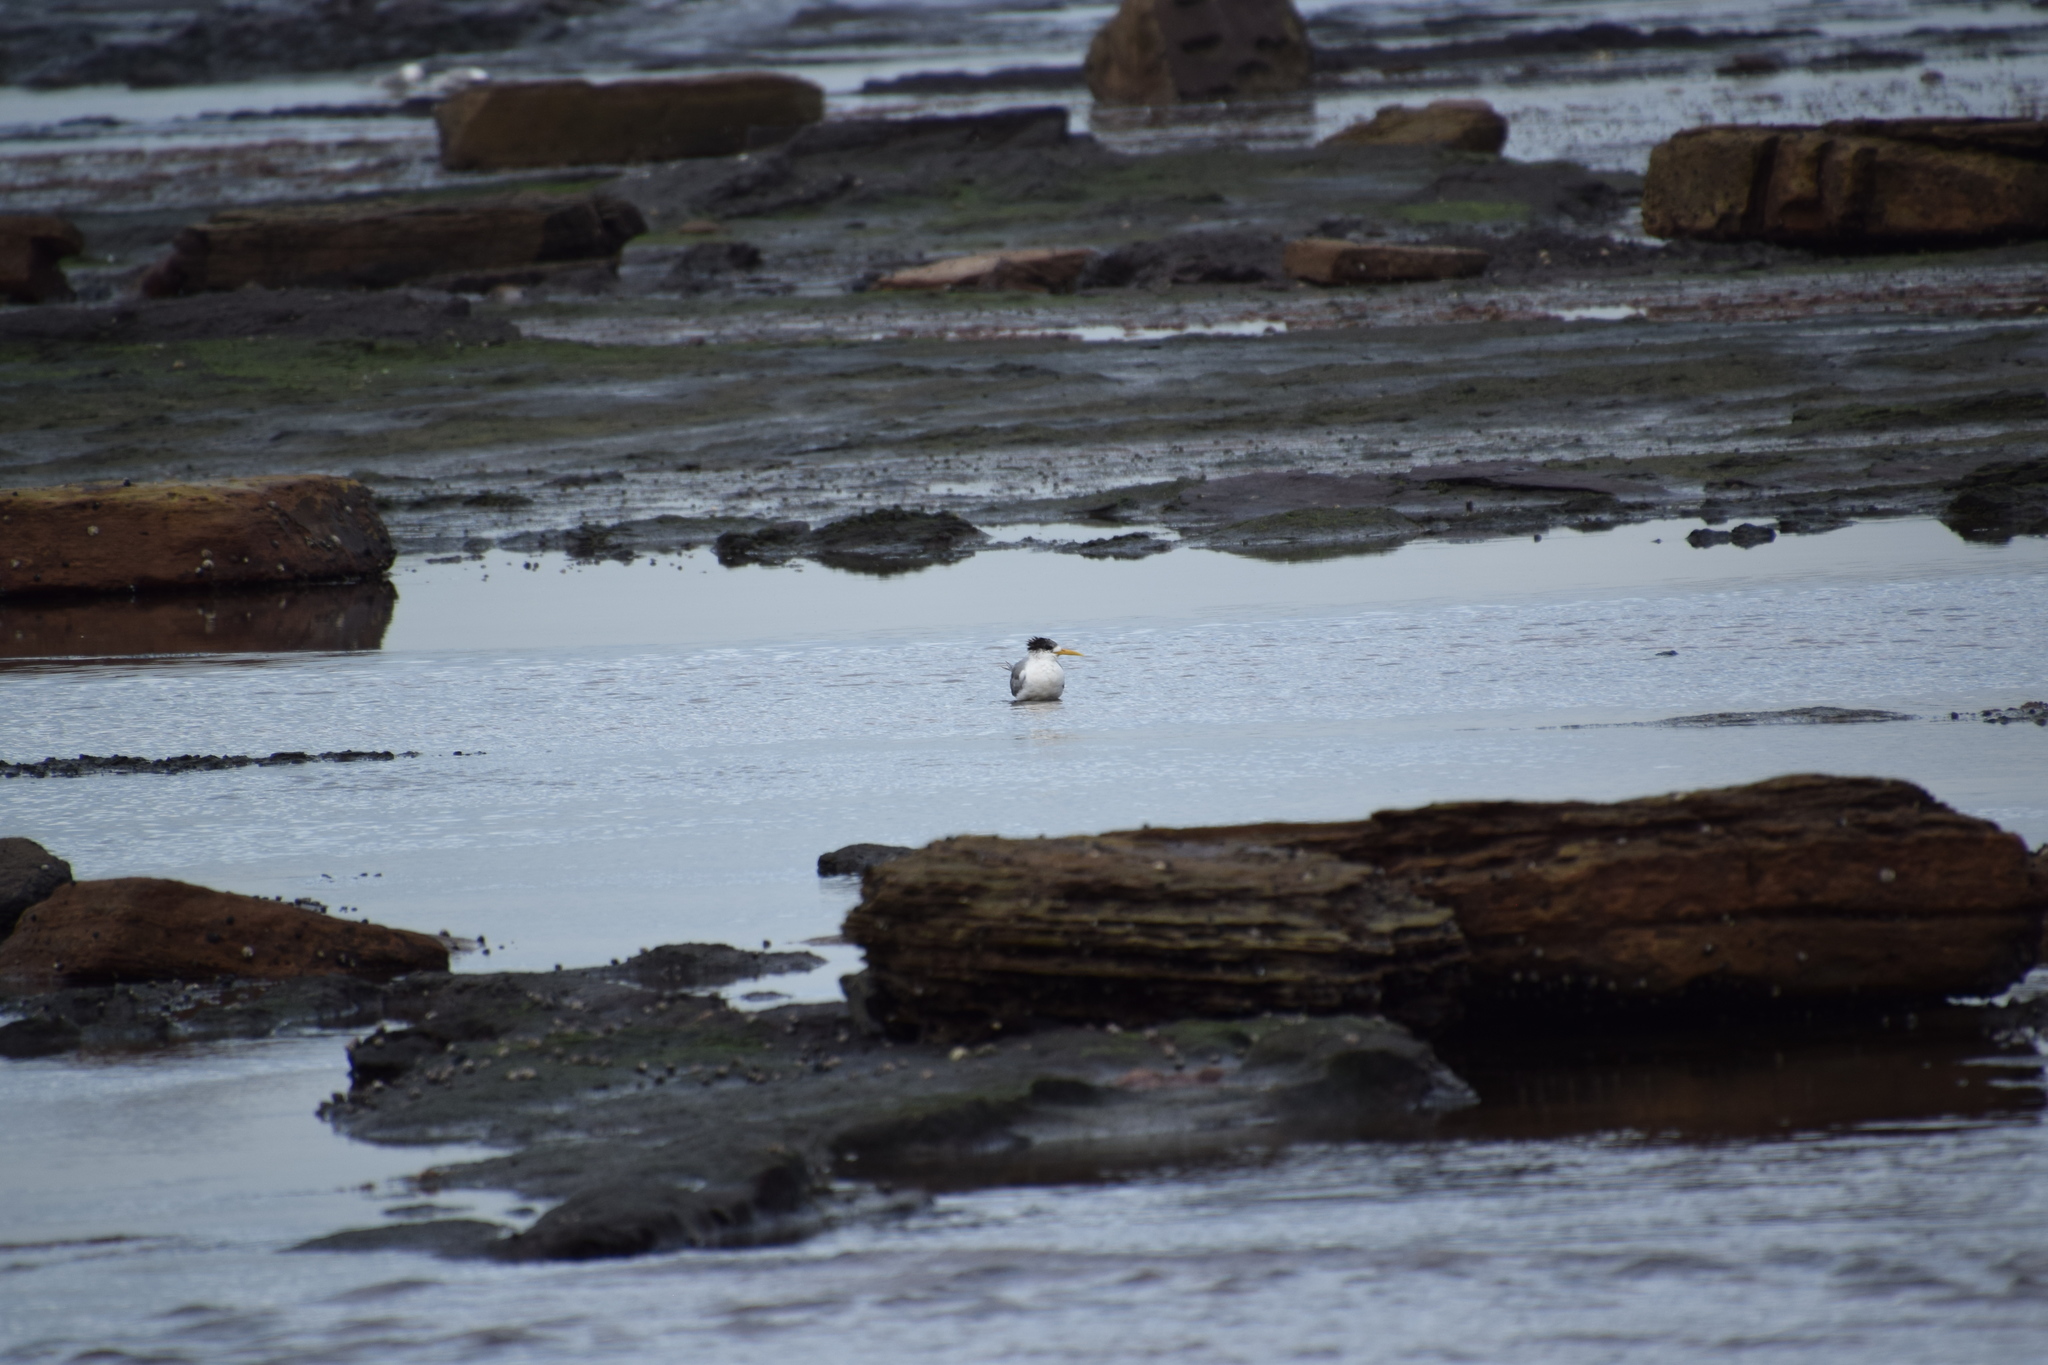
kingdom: Animalia
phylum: Chordata
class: Aves
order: Charadriiformes
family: Laridae
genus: Thalasseus
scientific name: Thalasseus bergii
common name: Greater crested tern
